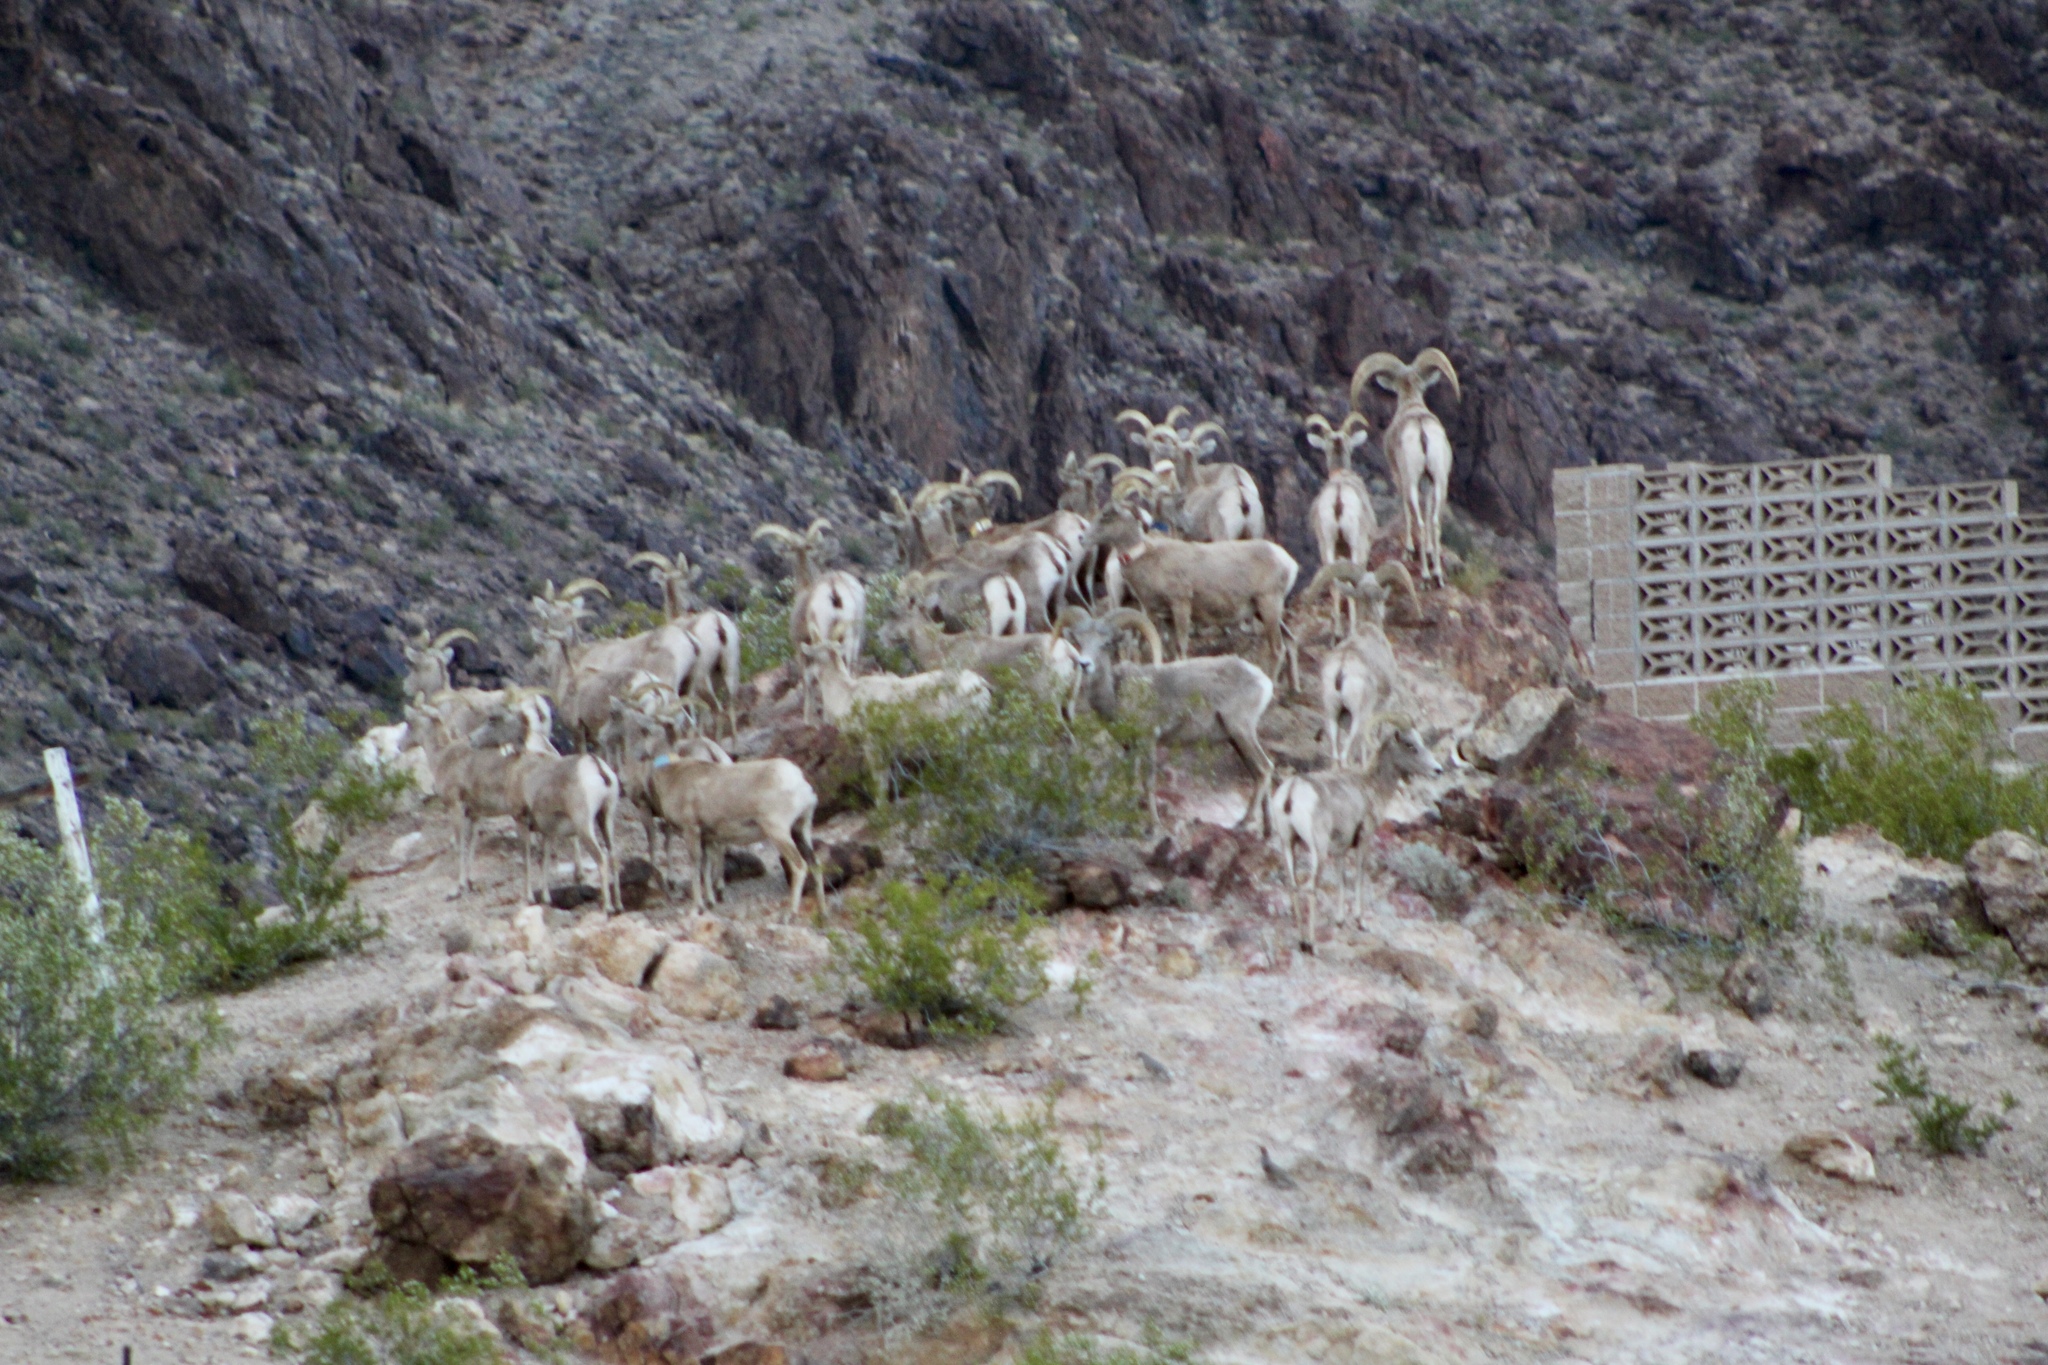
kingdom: Animalia
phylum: Chordata
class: Mammalia
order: Artiodactyla
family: Bovidae
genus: Ovis
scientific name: Ovis canadensis
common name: Bighorn sheep
